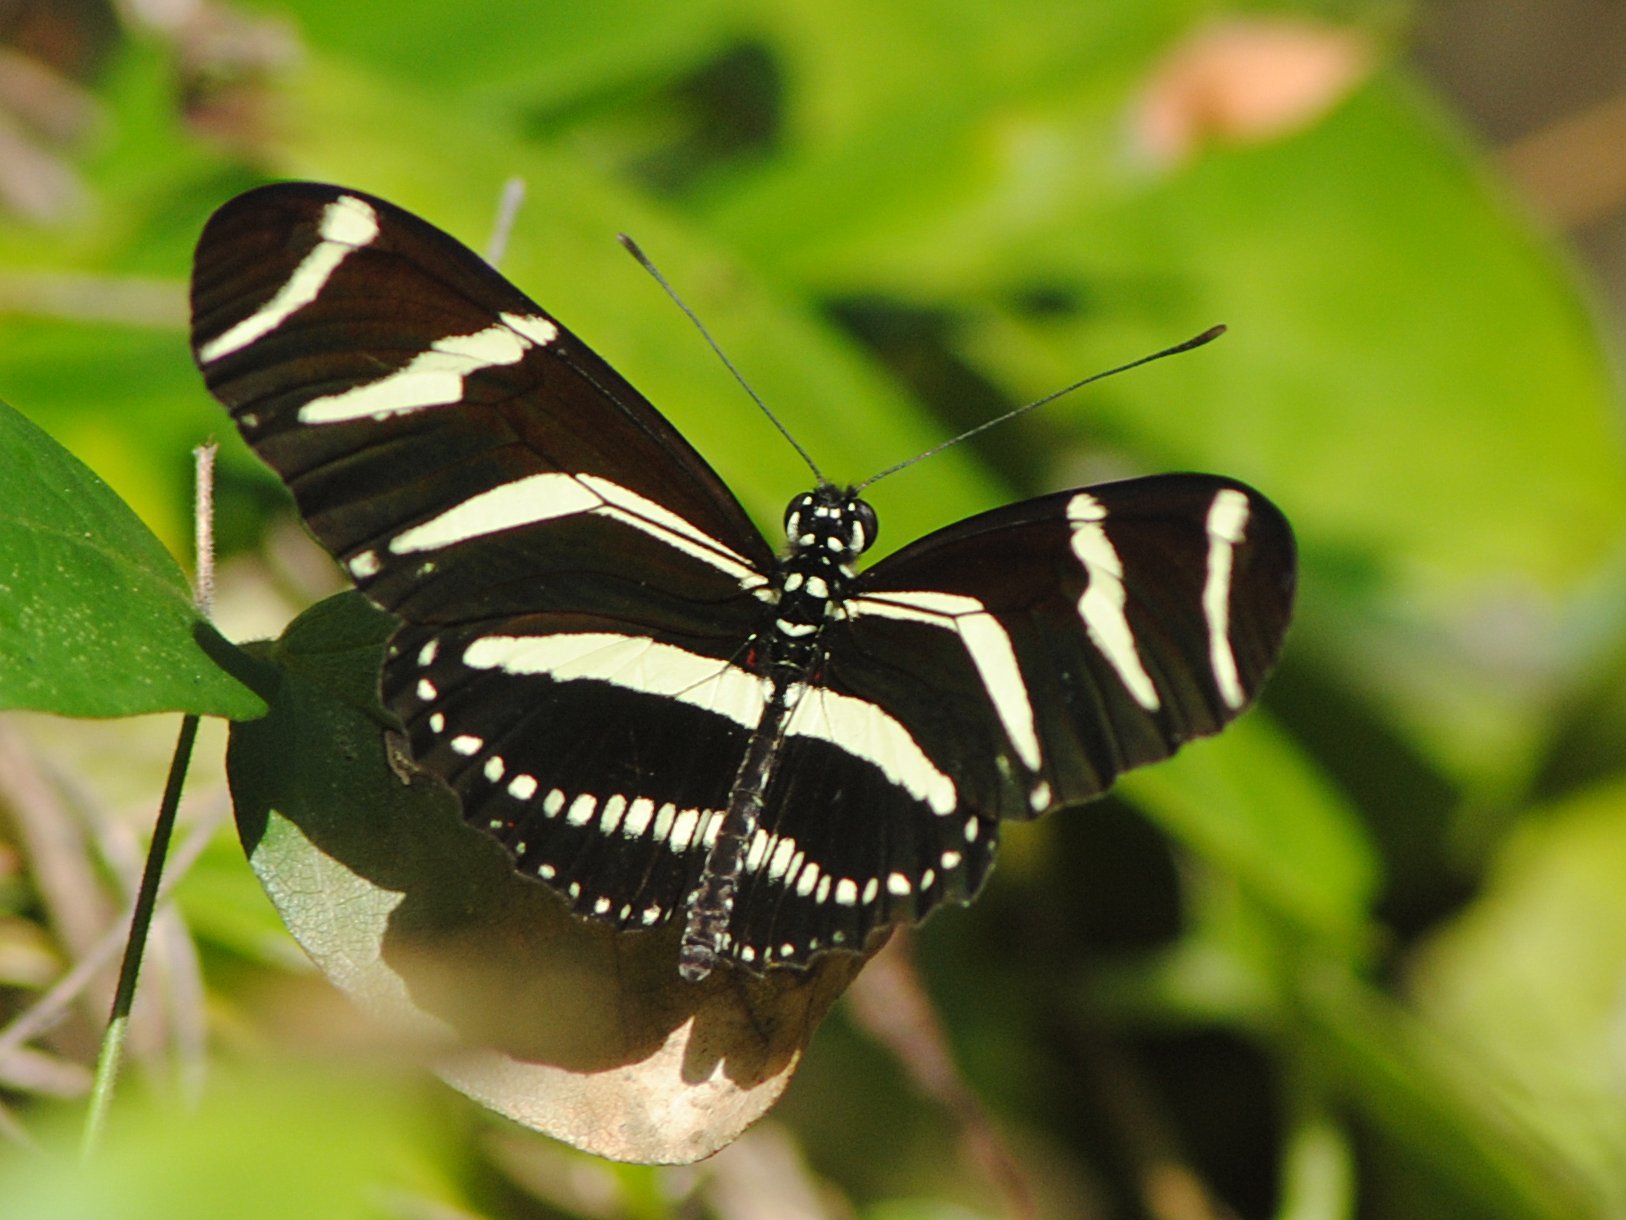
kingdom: Animalia
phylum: Arthropoda
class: Insecta
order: Lepidoptera
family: Nymphalidae
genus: Heliconius
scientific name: Heliconius charithonia
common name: Zebra long wing
